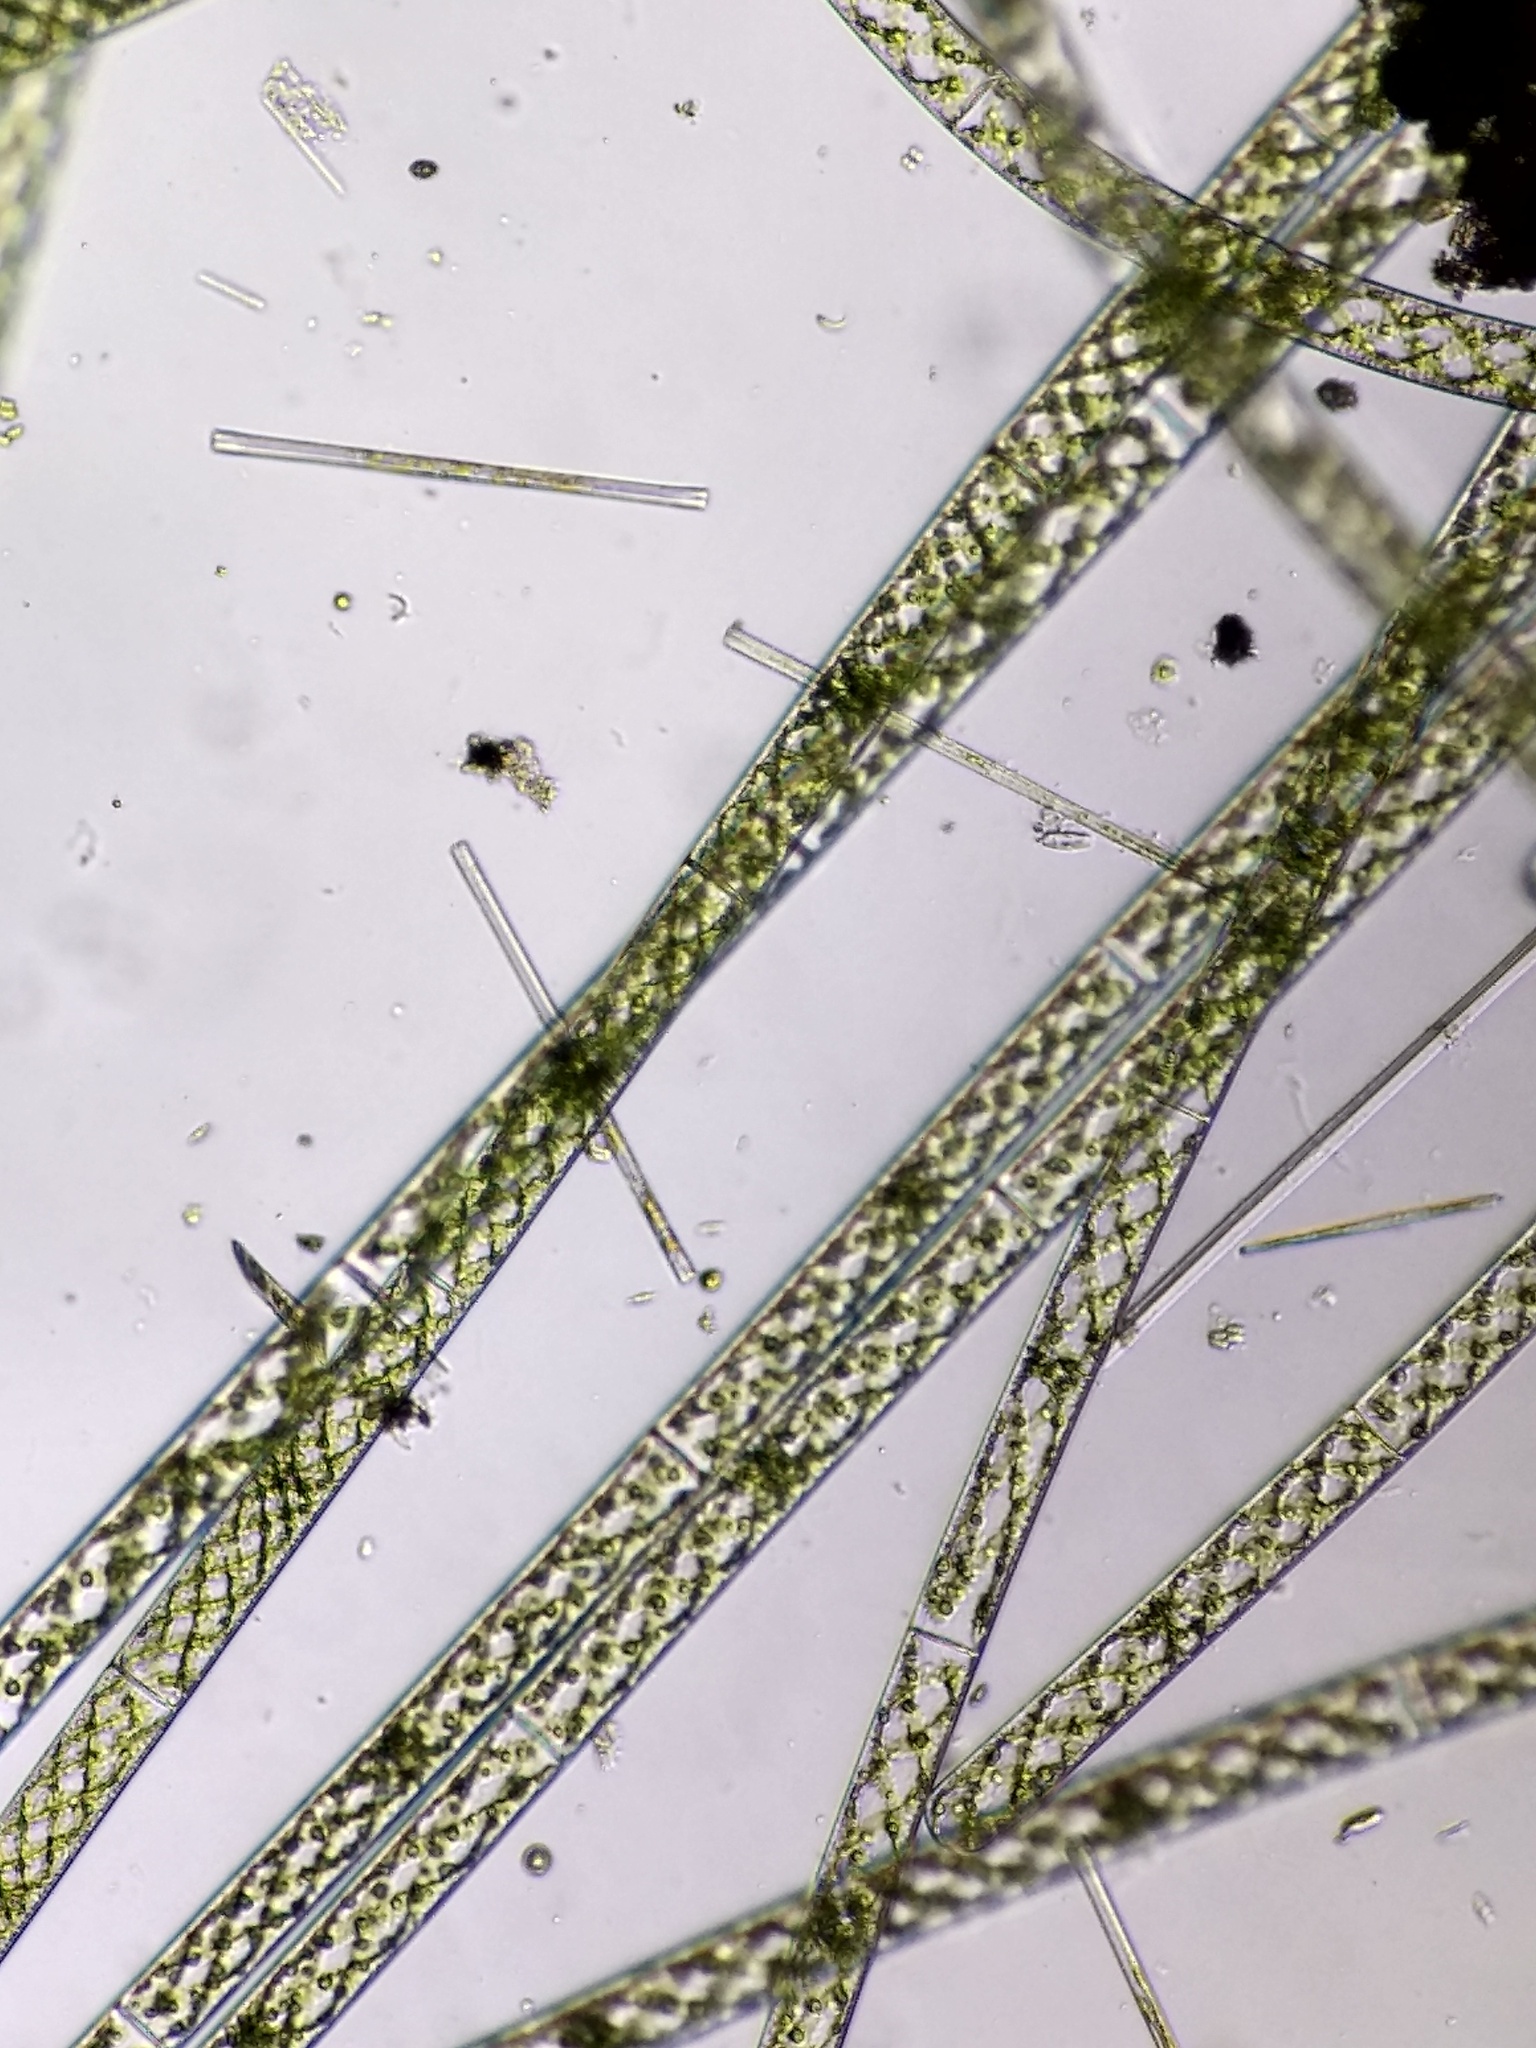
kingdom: Plantae
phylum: Charophyta
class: Zygnematophyceae
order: Zygnematales
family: Zygnemataceae
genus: Spirogyra
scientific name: Spirogyra
